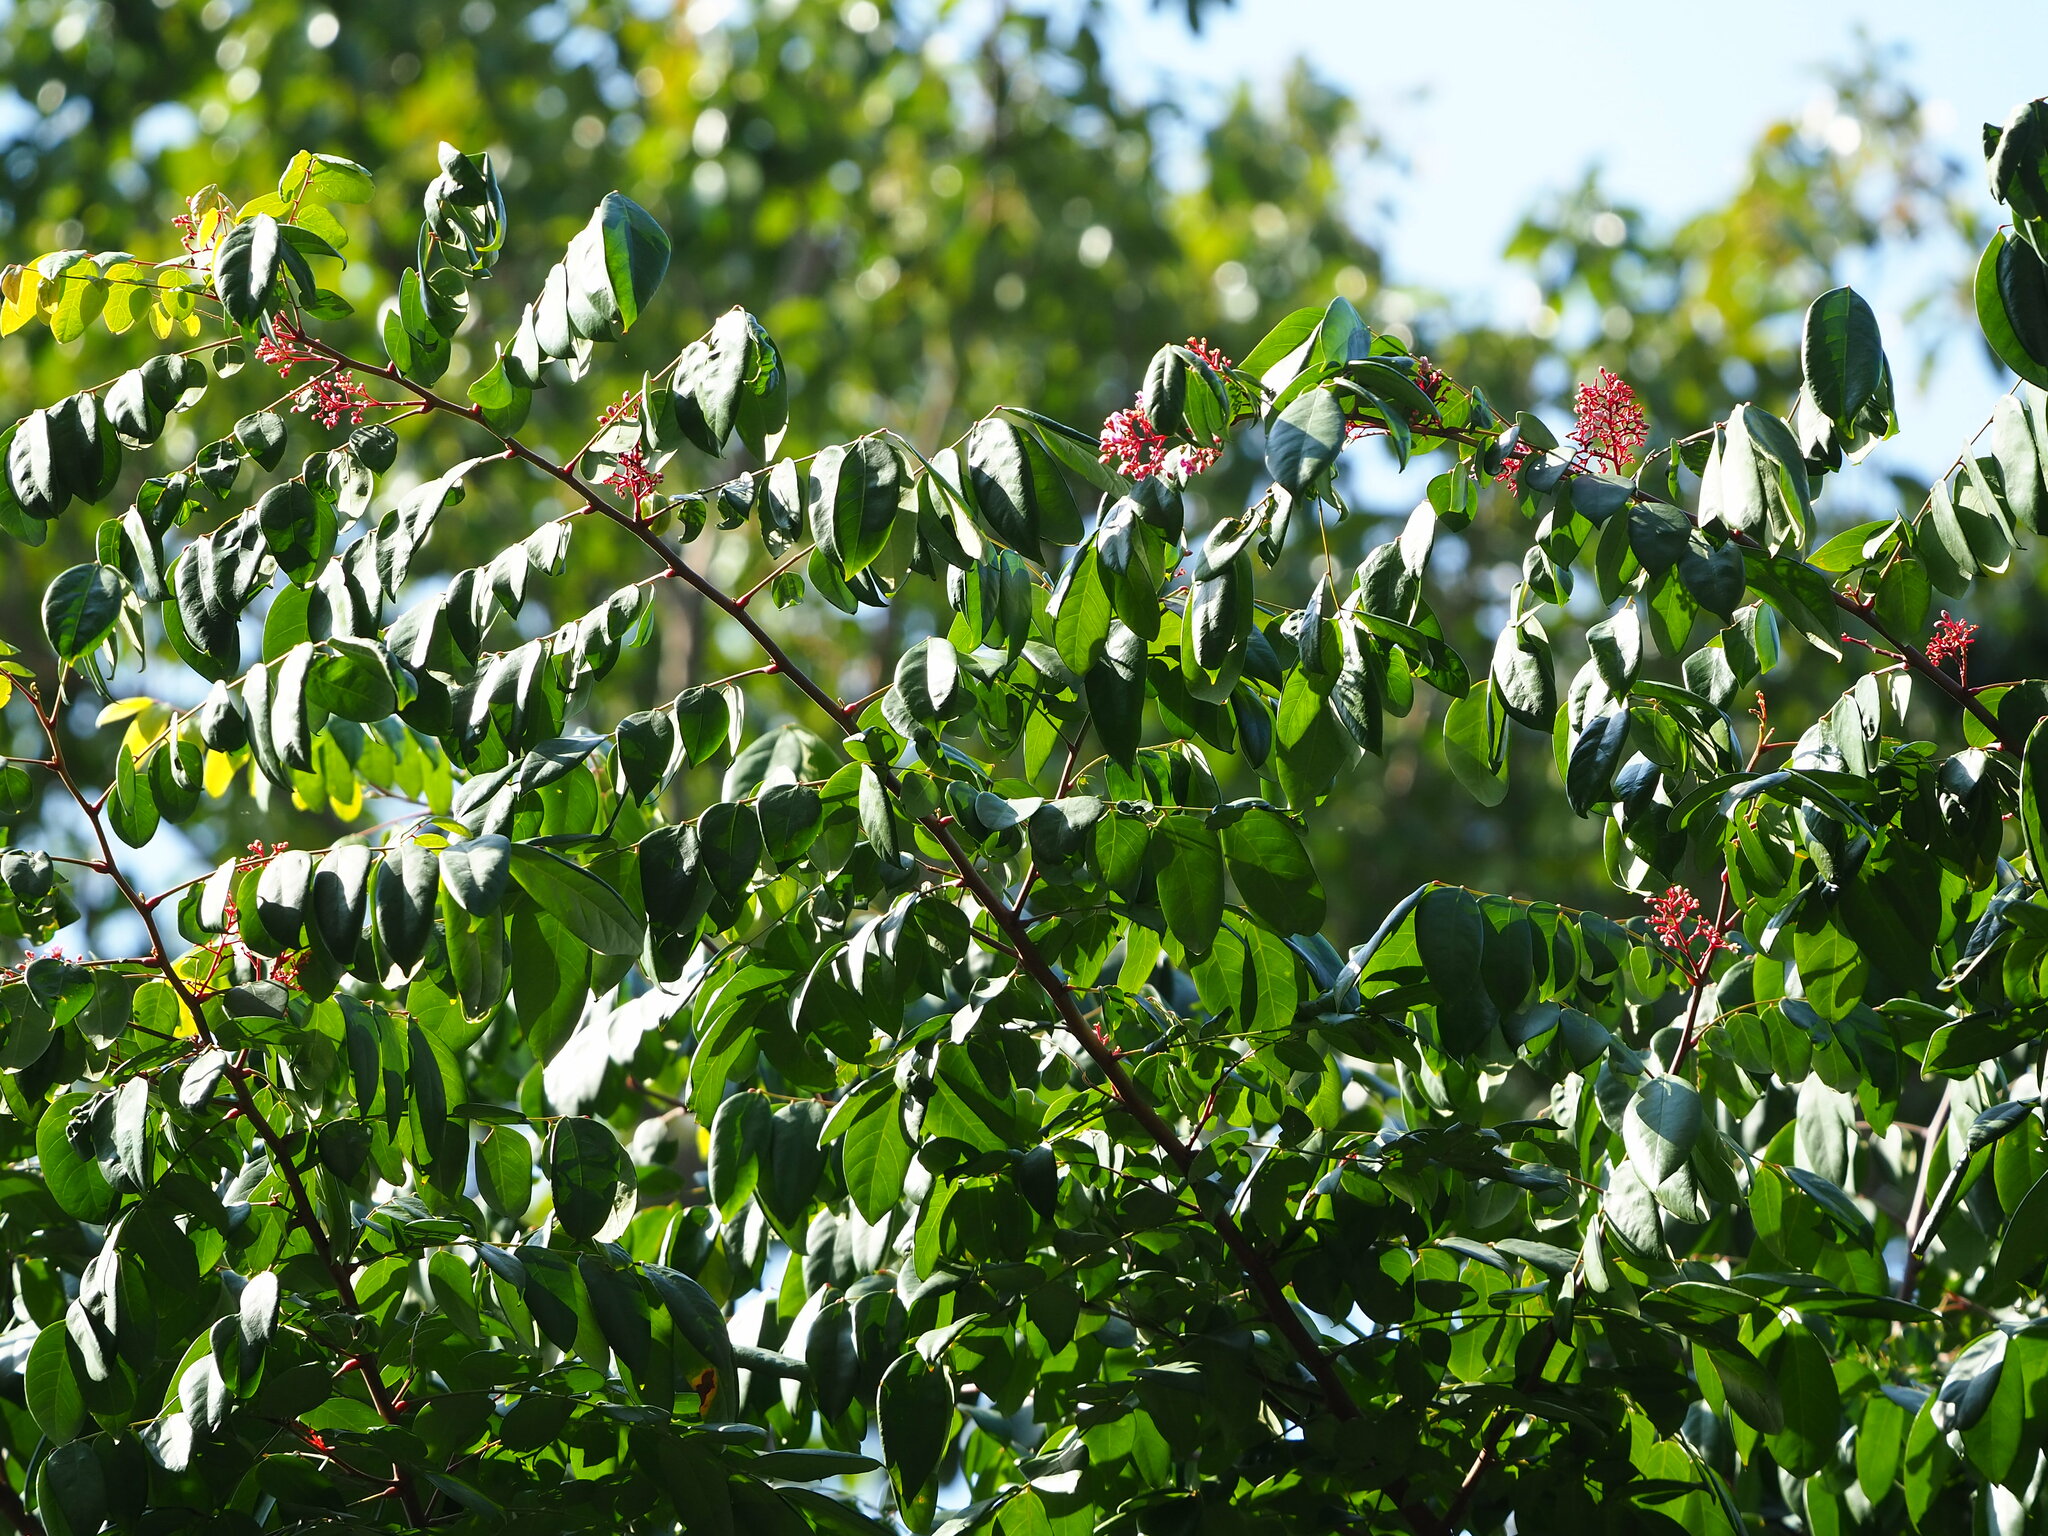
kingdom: Plantae
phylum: Tracheophyta
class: Magnoliopsida
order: Oxalidales
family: Oxalidaceae
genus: Averrhoa
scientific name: Averrhoa carambola
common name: Blimbing
